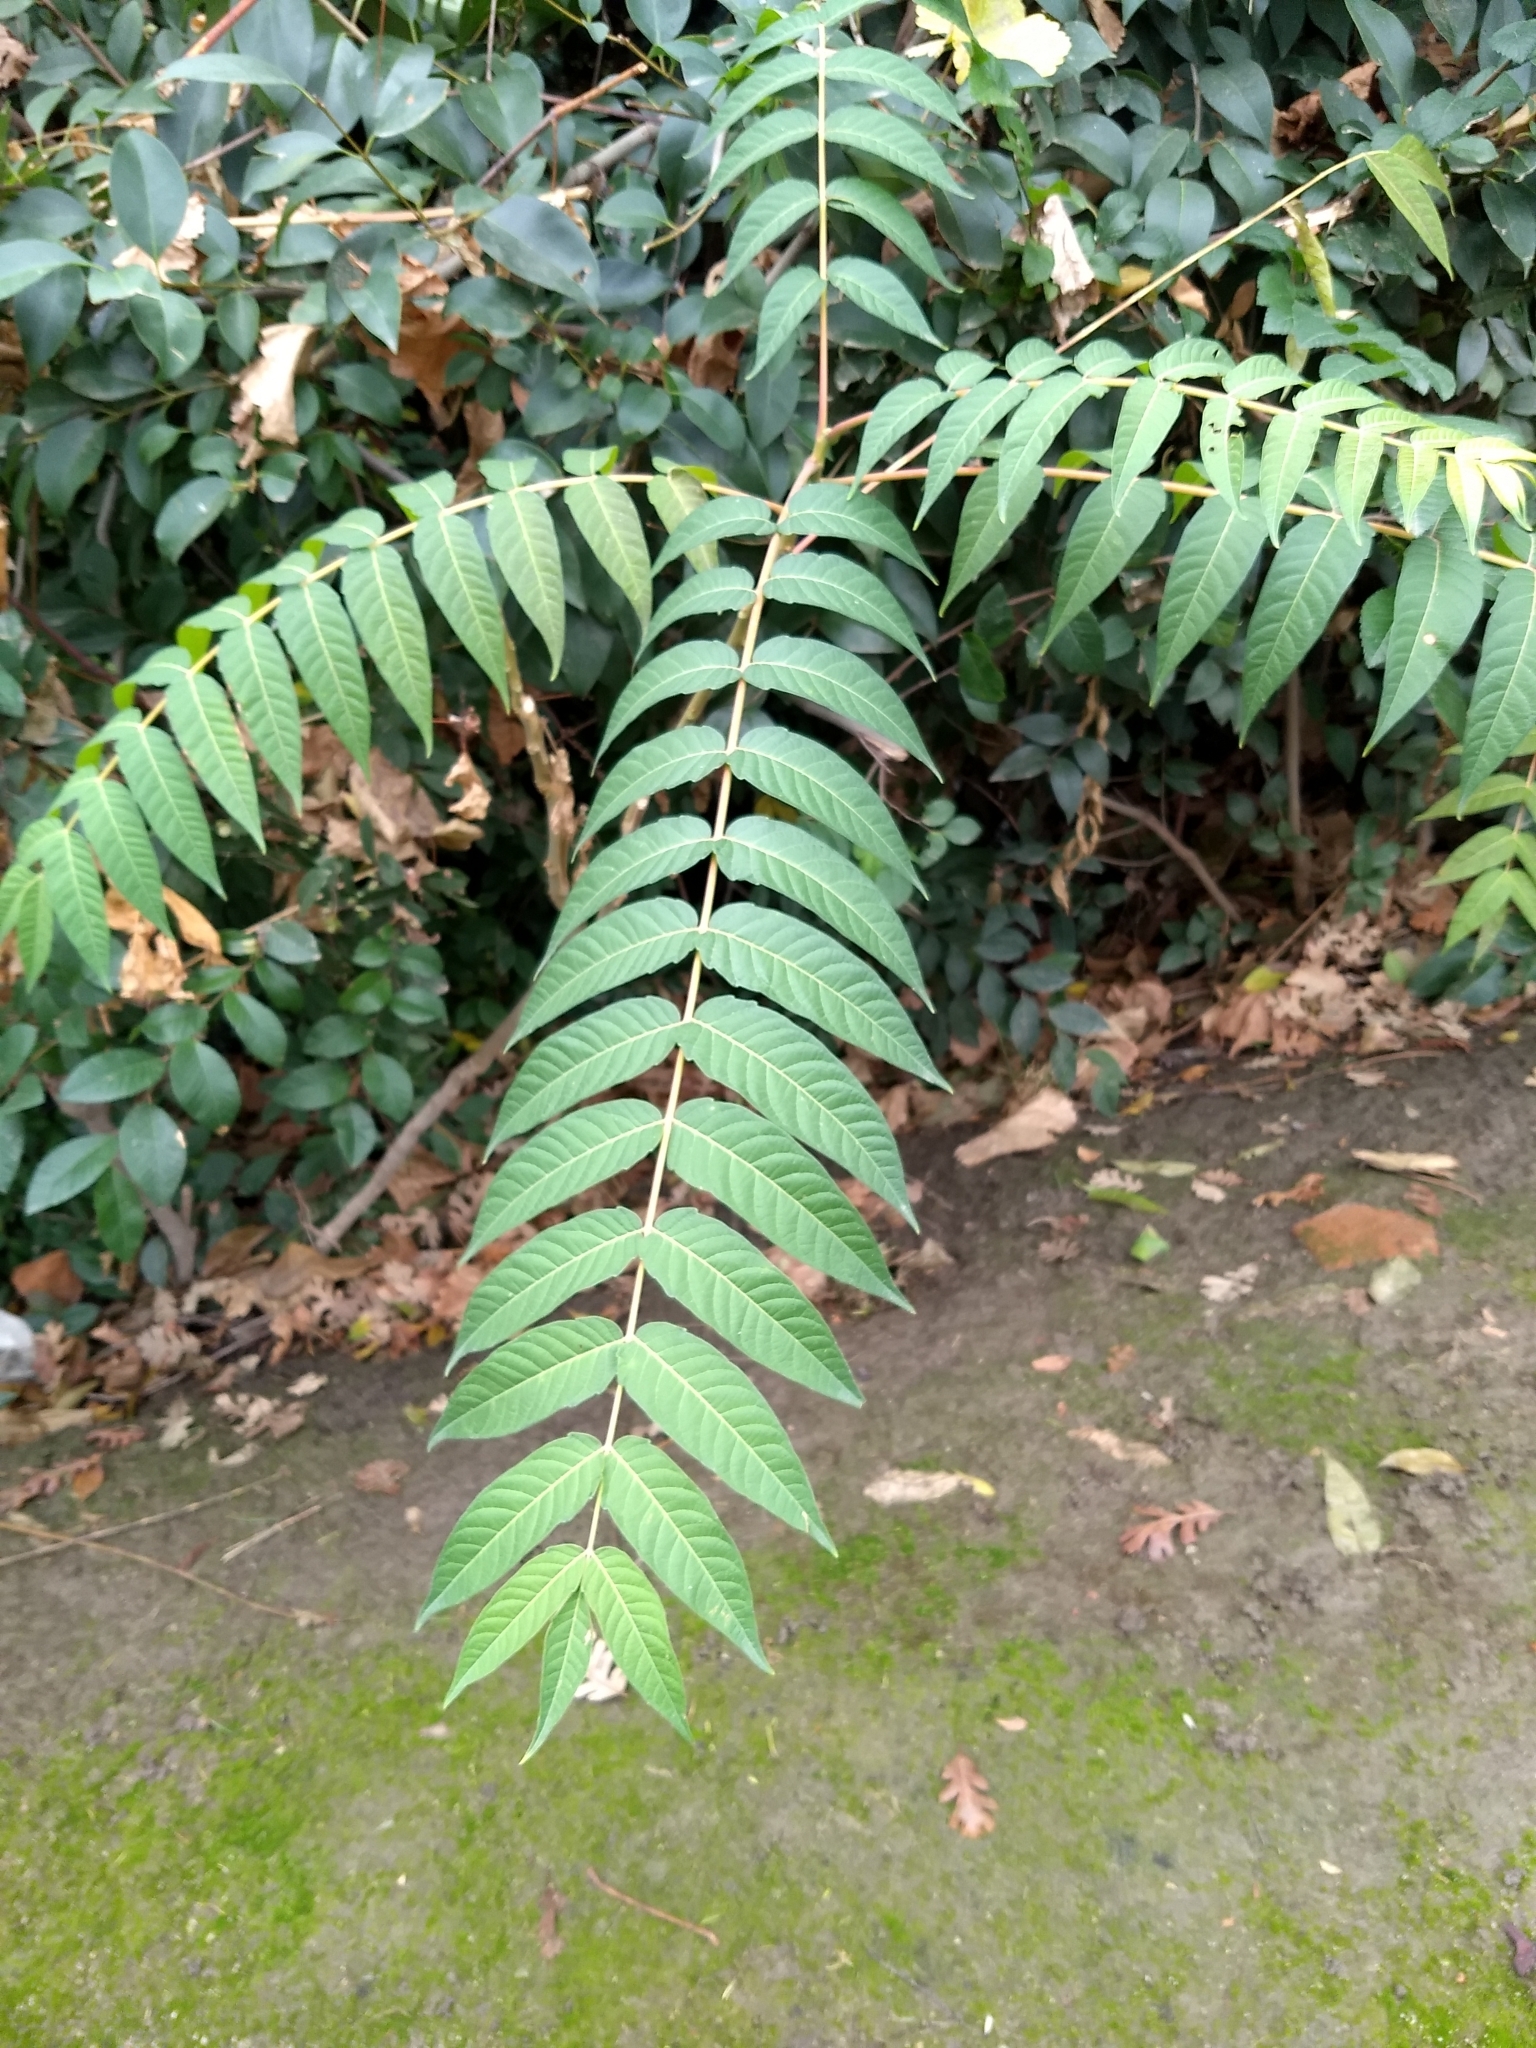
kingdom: Plantae
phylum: Tracheophyta
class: Magnoliopsida
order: Sapindales
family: Simaroubaceae
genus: Ailanthus
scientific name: Ailanthus altissima
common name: Tree-of-heaven
